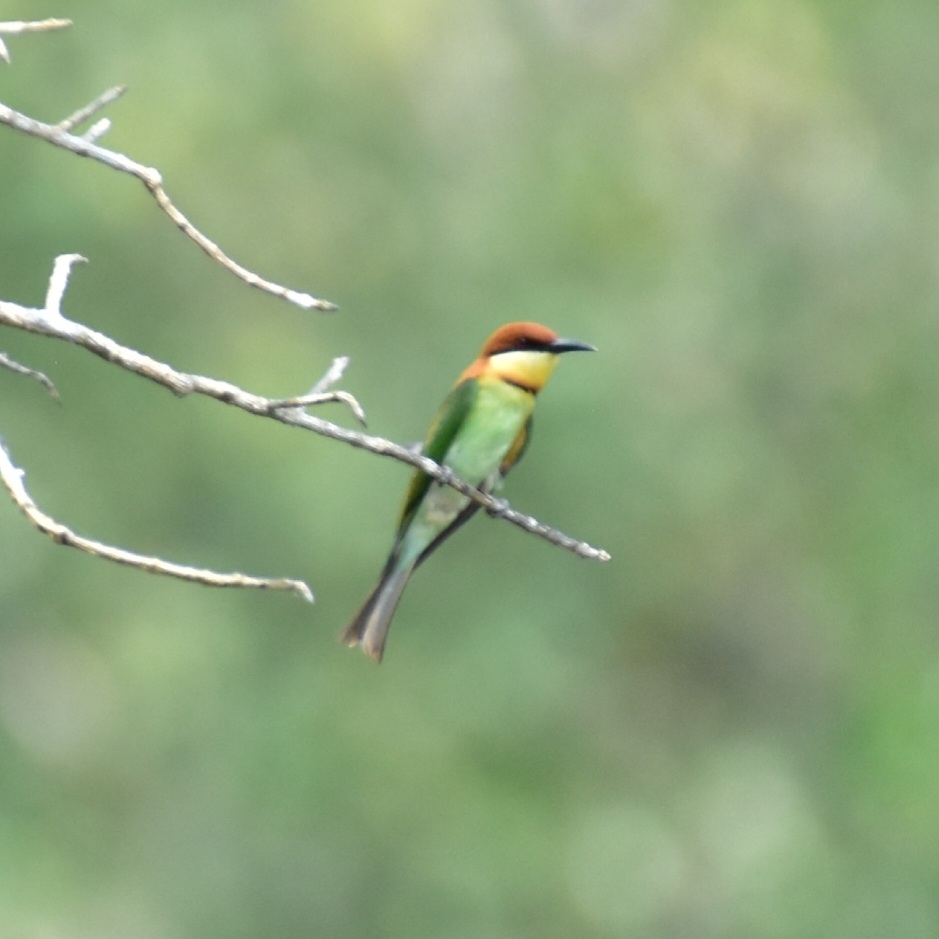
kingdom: Animalia
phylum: Chordata
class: Aves
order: Coraciiformes
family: Meropidae
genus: Merops
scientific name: Merops leschenaulti
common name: Chestnut-headed bee-eater
